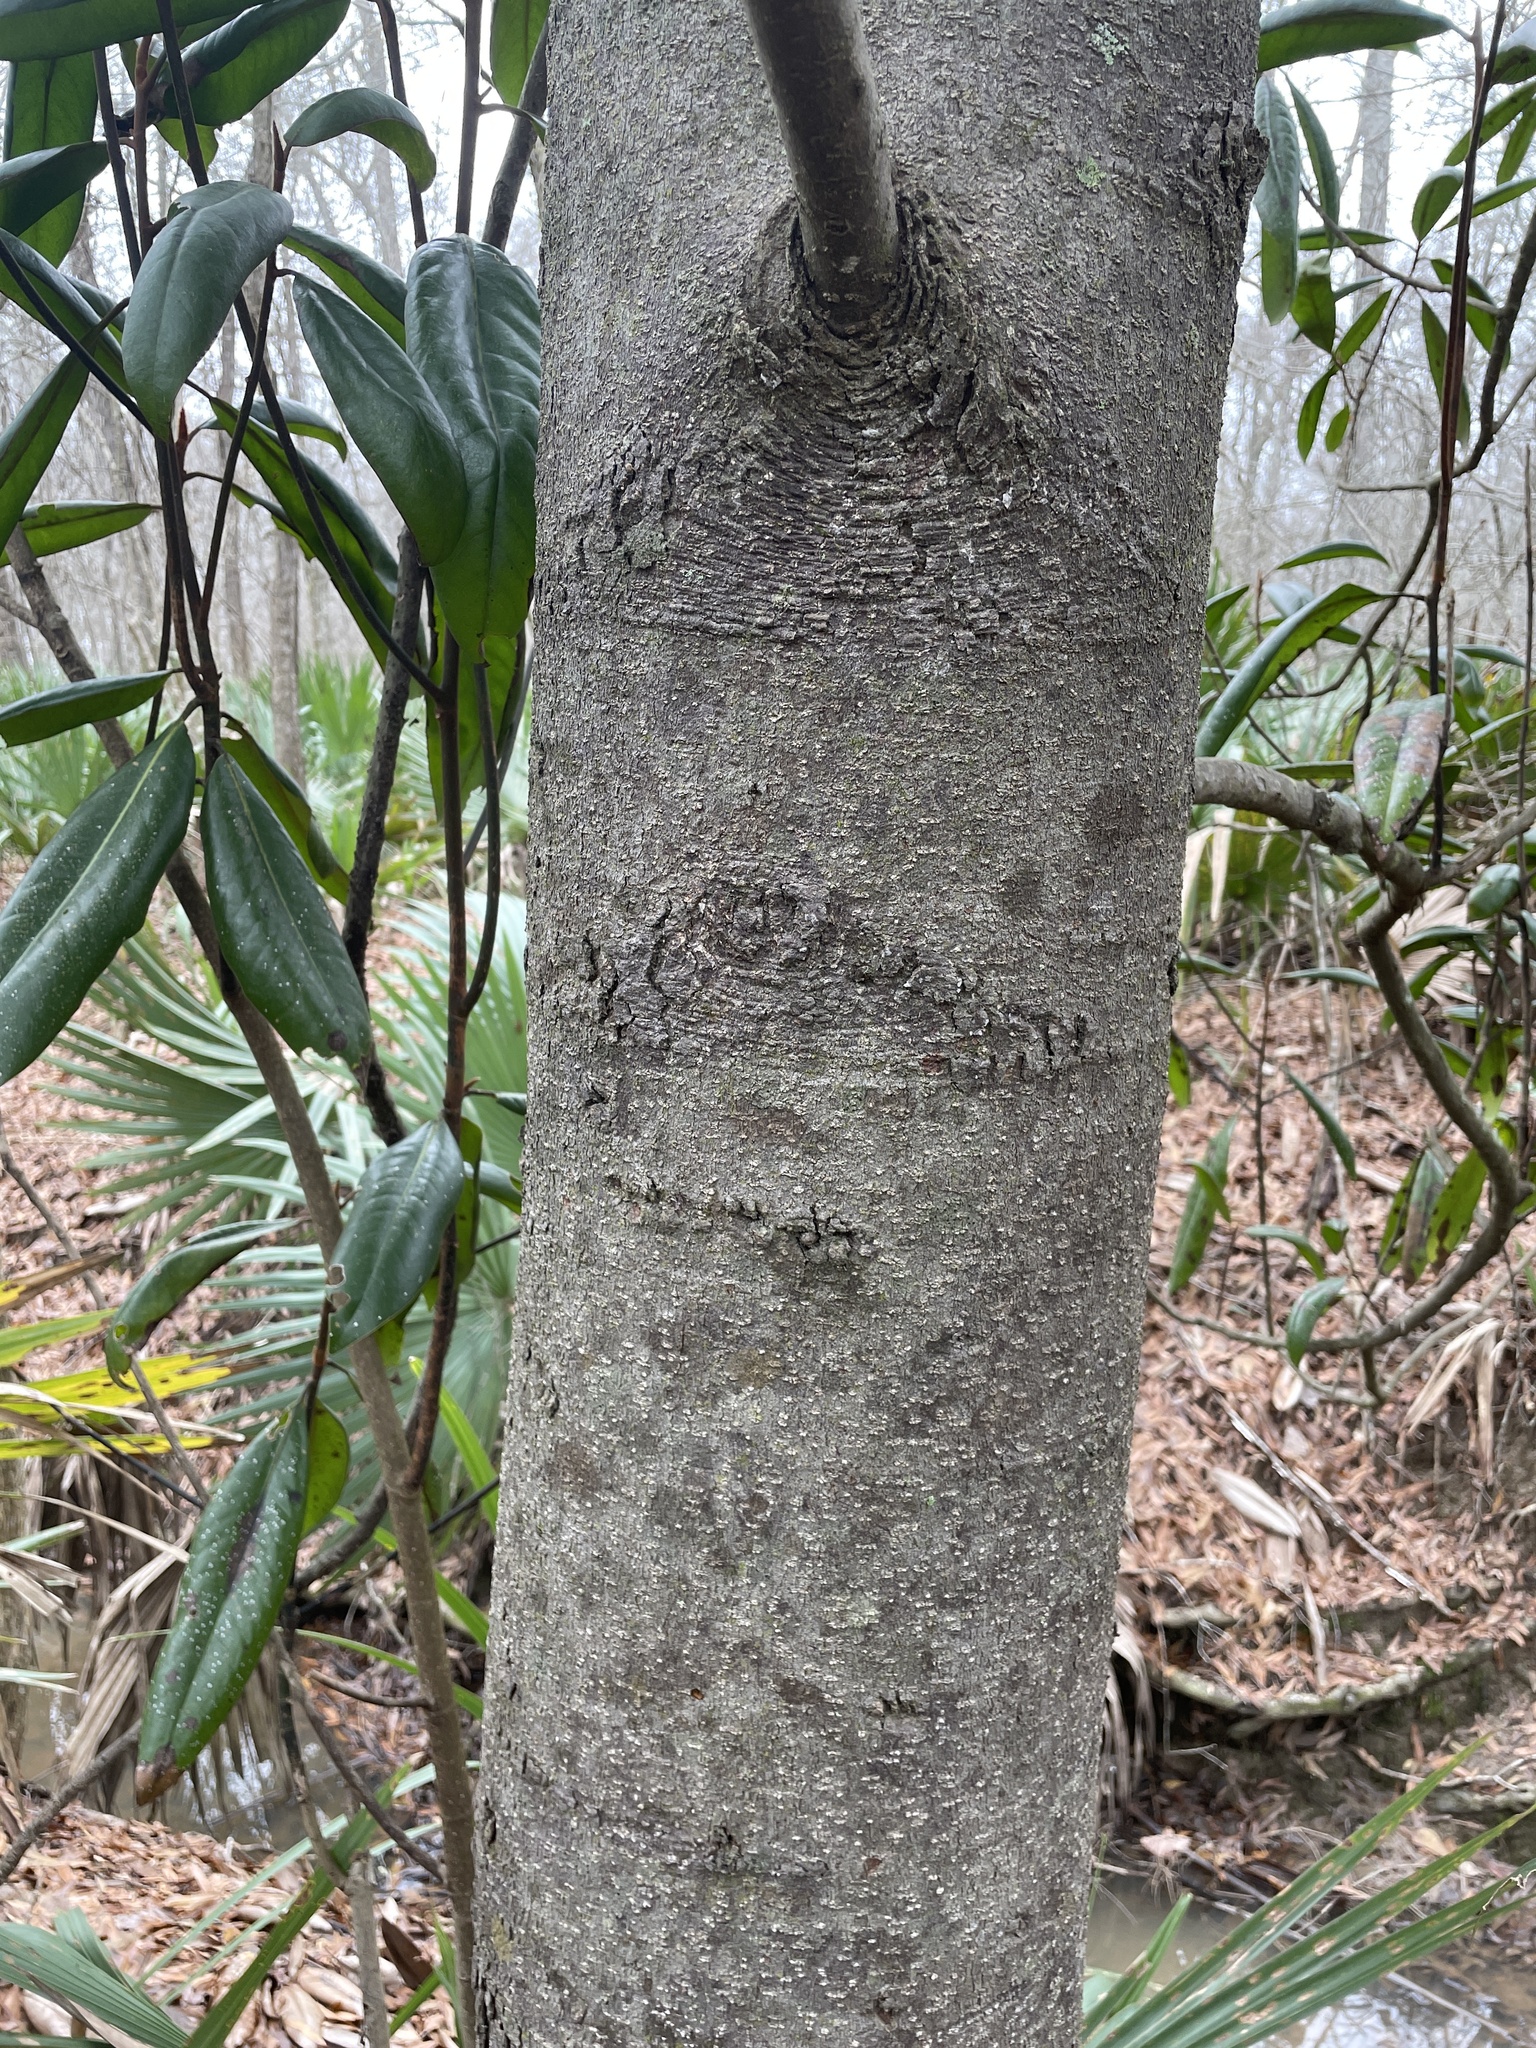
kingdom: Plantae
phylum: Tracheophyta
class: Magnoliopsida
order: Magnoliales
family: Magnoliaceae
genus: Magnolia
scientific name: Magnolia grandiflora
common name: Southern magnolia
